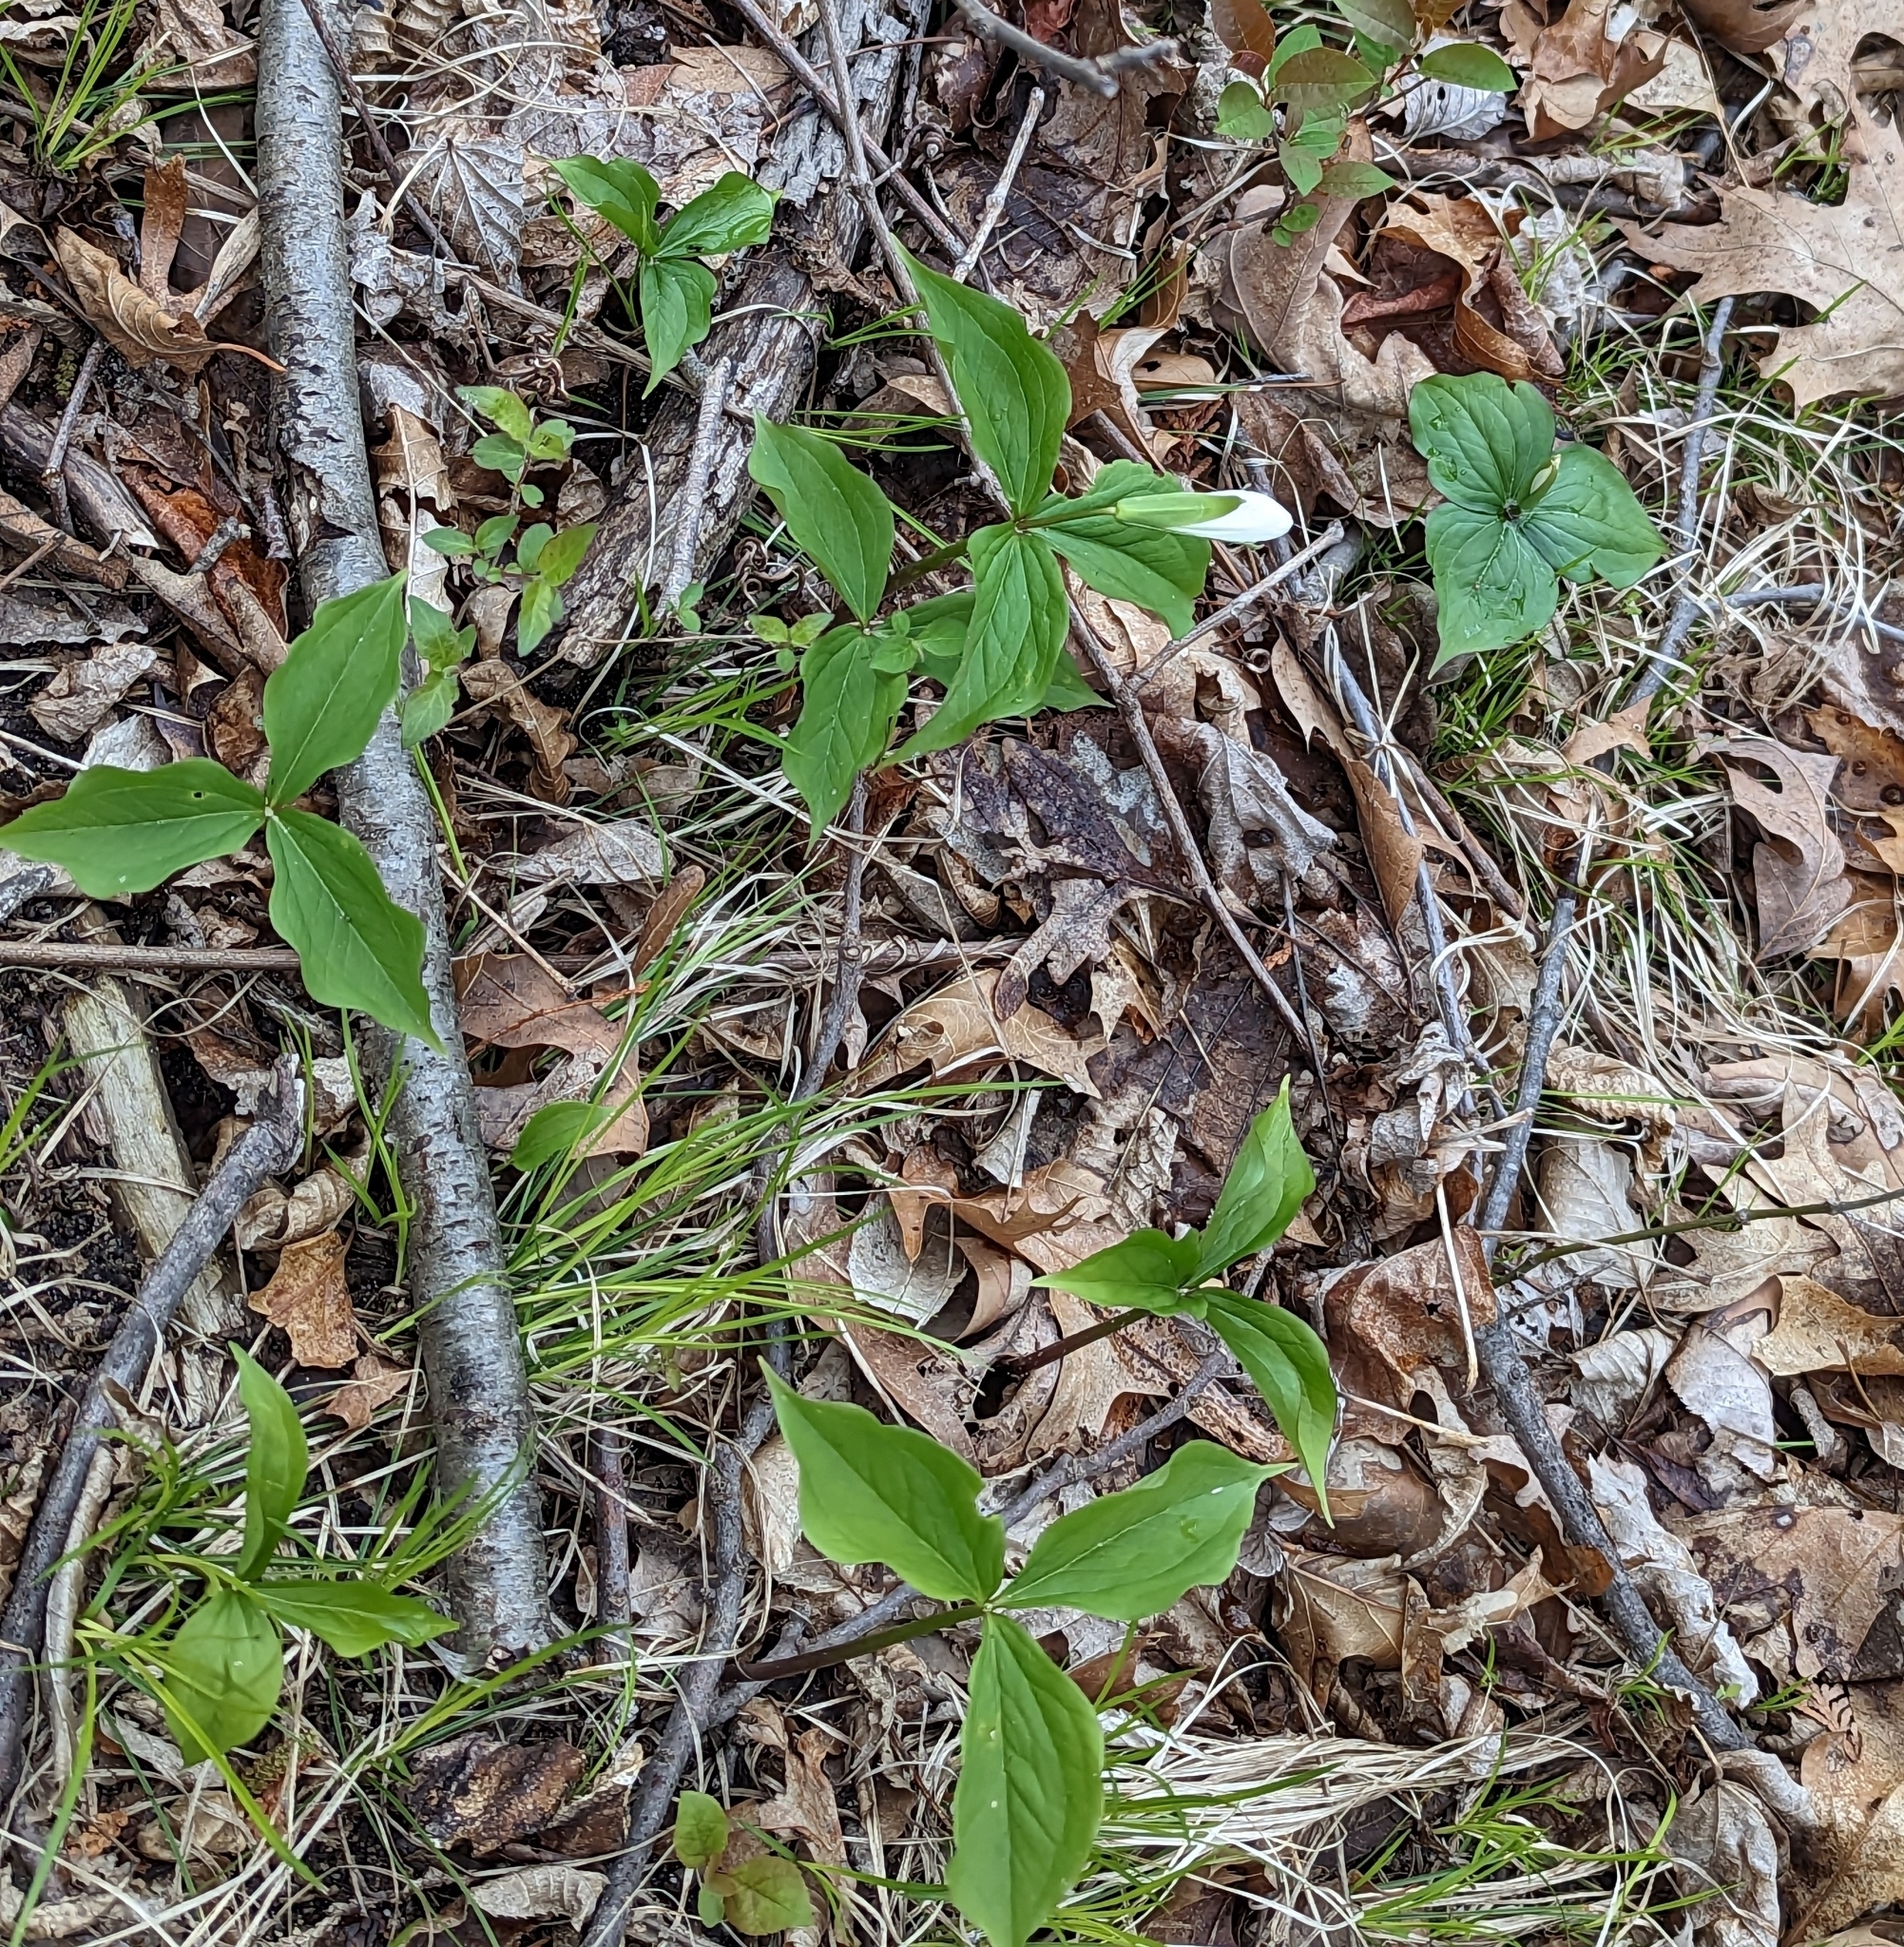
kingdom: Plantae
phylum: Tracheophyta
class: Liliopsida
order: Liliales
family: Melanthiaceae
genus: Trillium
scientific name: Trillium grandiflorum
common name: Great white trillium
